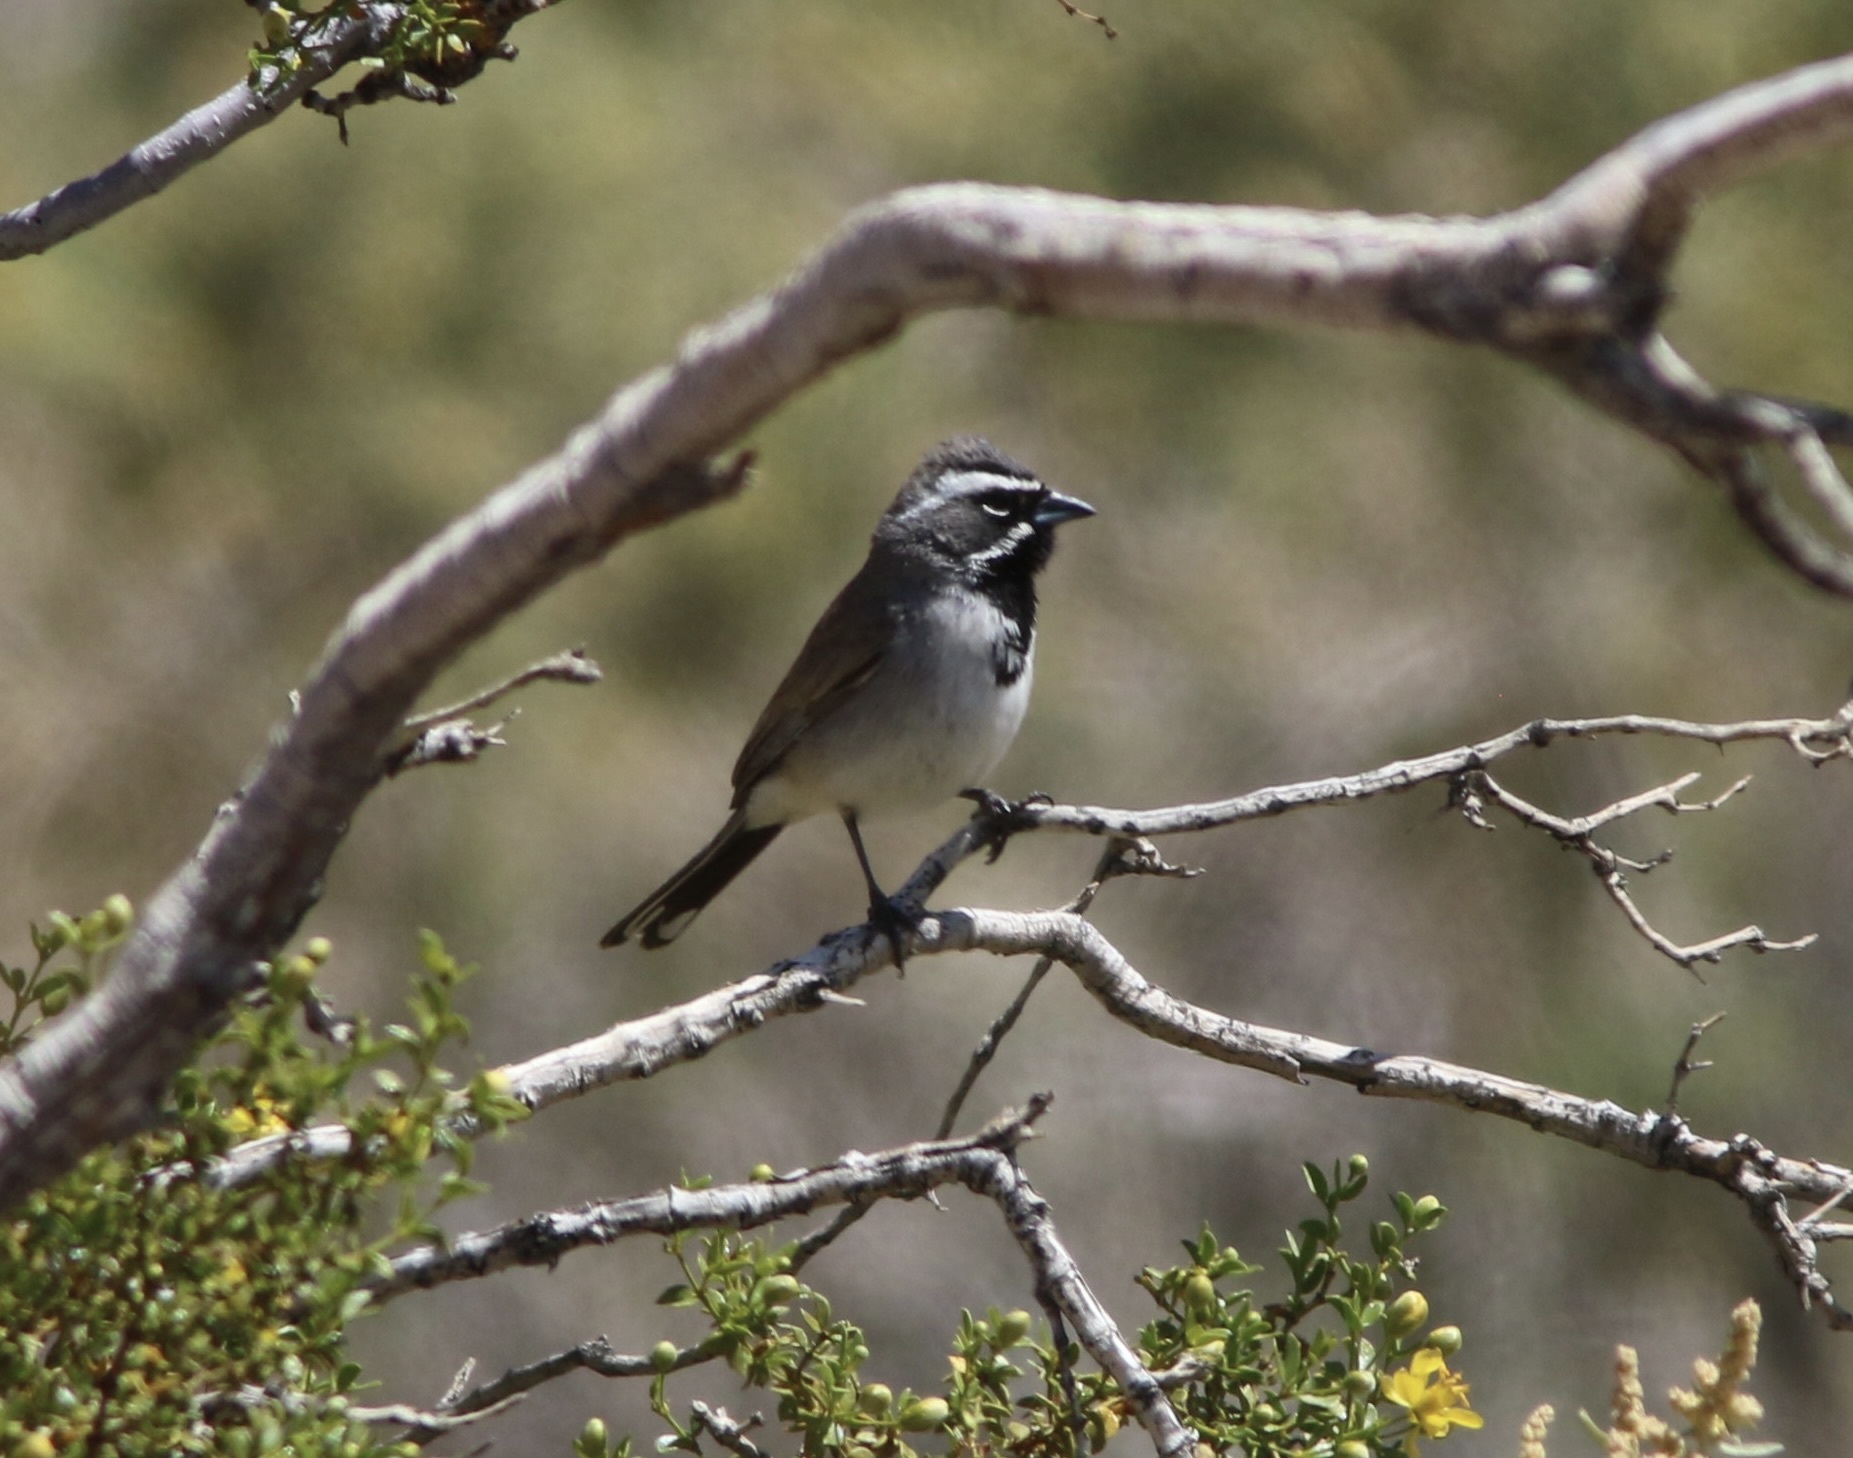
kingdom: Animalia
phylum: Chordata
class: Aves
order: Passeriformes
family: Passerellidae
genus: Amphispiza
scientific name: Amphispiza bilineata
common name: Black-throated sparrow
